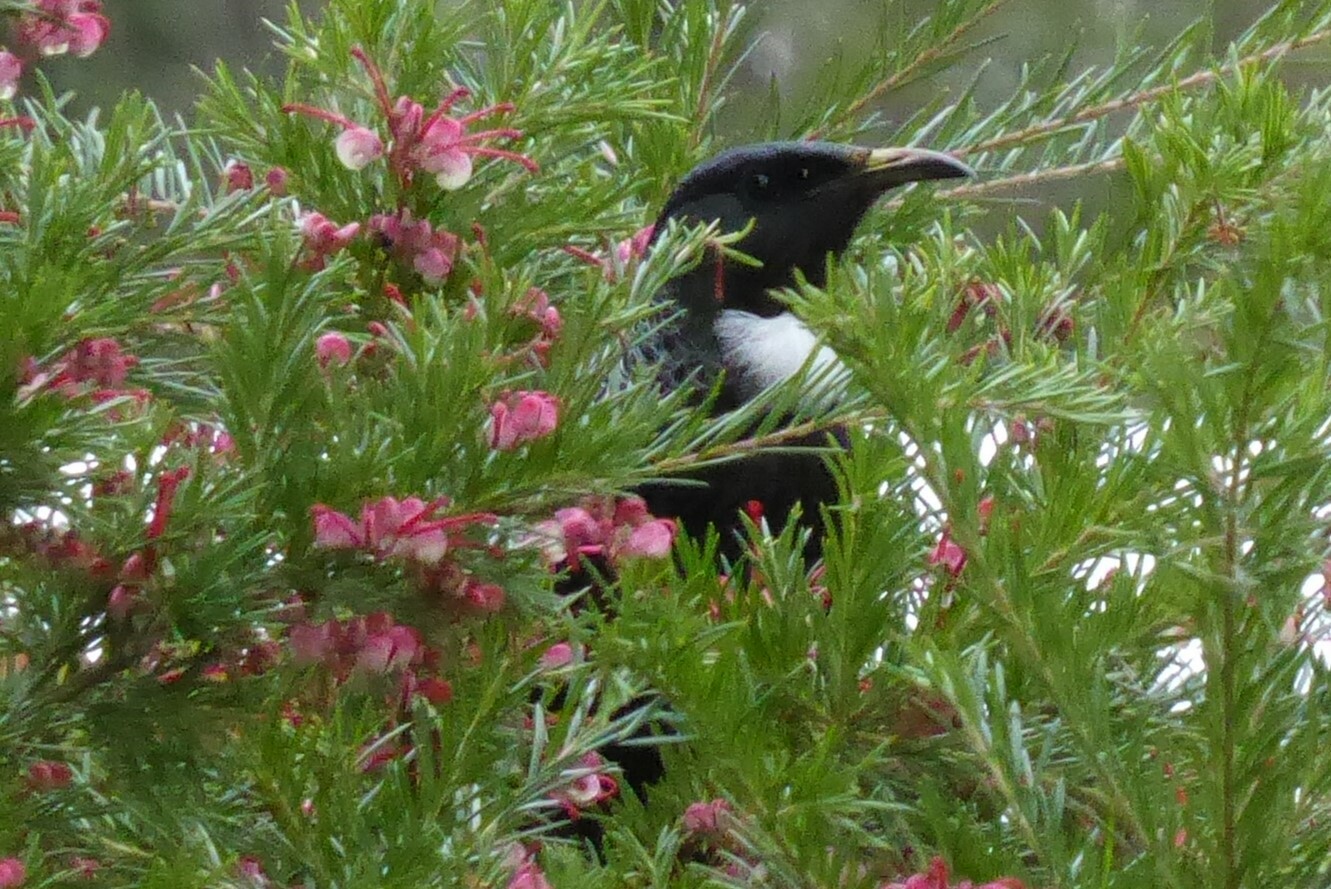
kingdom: Animalia
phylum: Chordata
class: Aves
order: Passeriformes
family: Meliphagidae
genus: Prosthemadera
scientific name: Prosthemadera novaeseelandiae
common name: Tui
